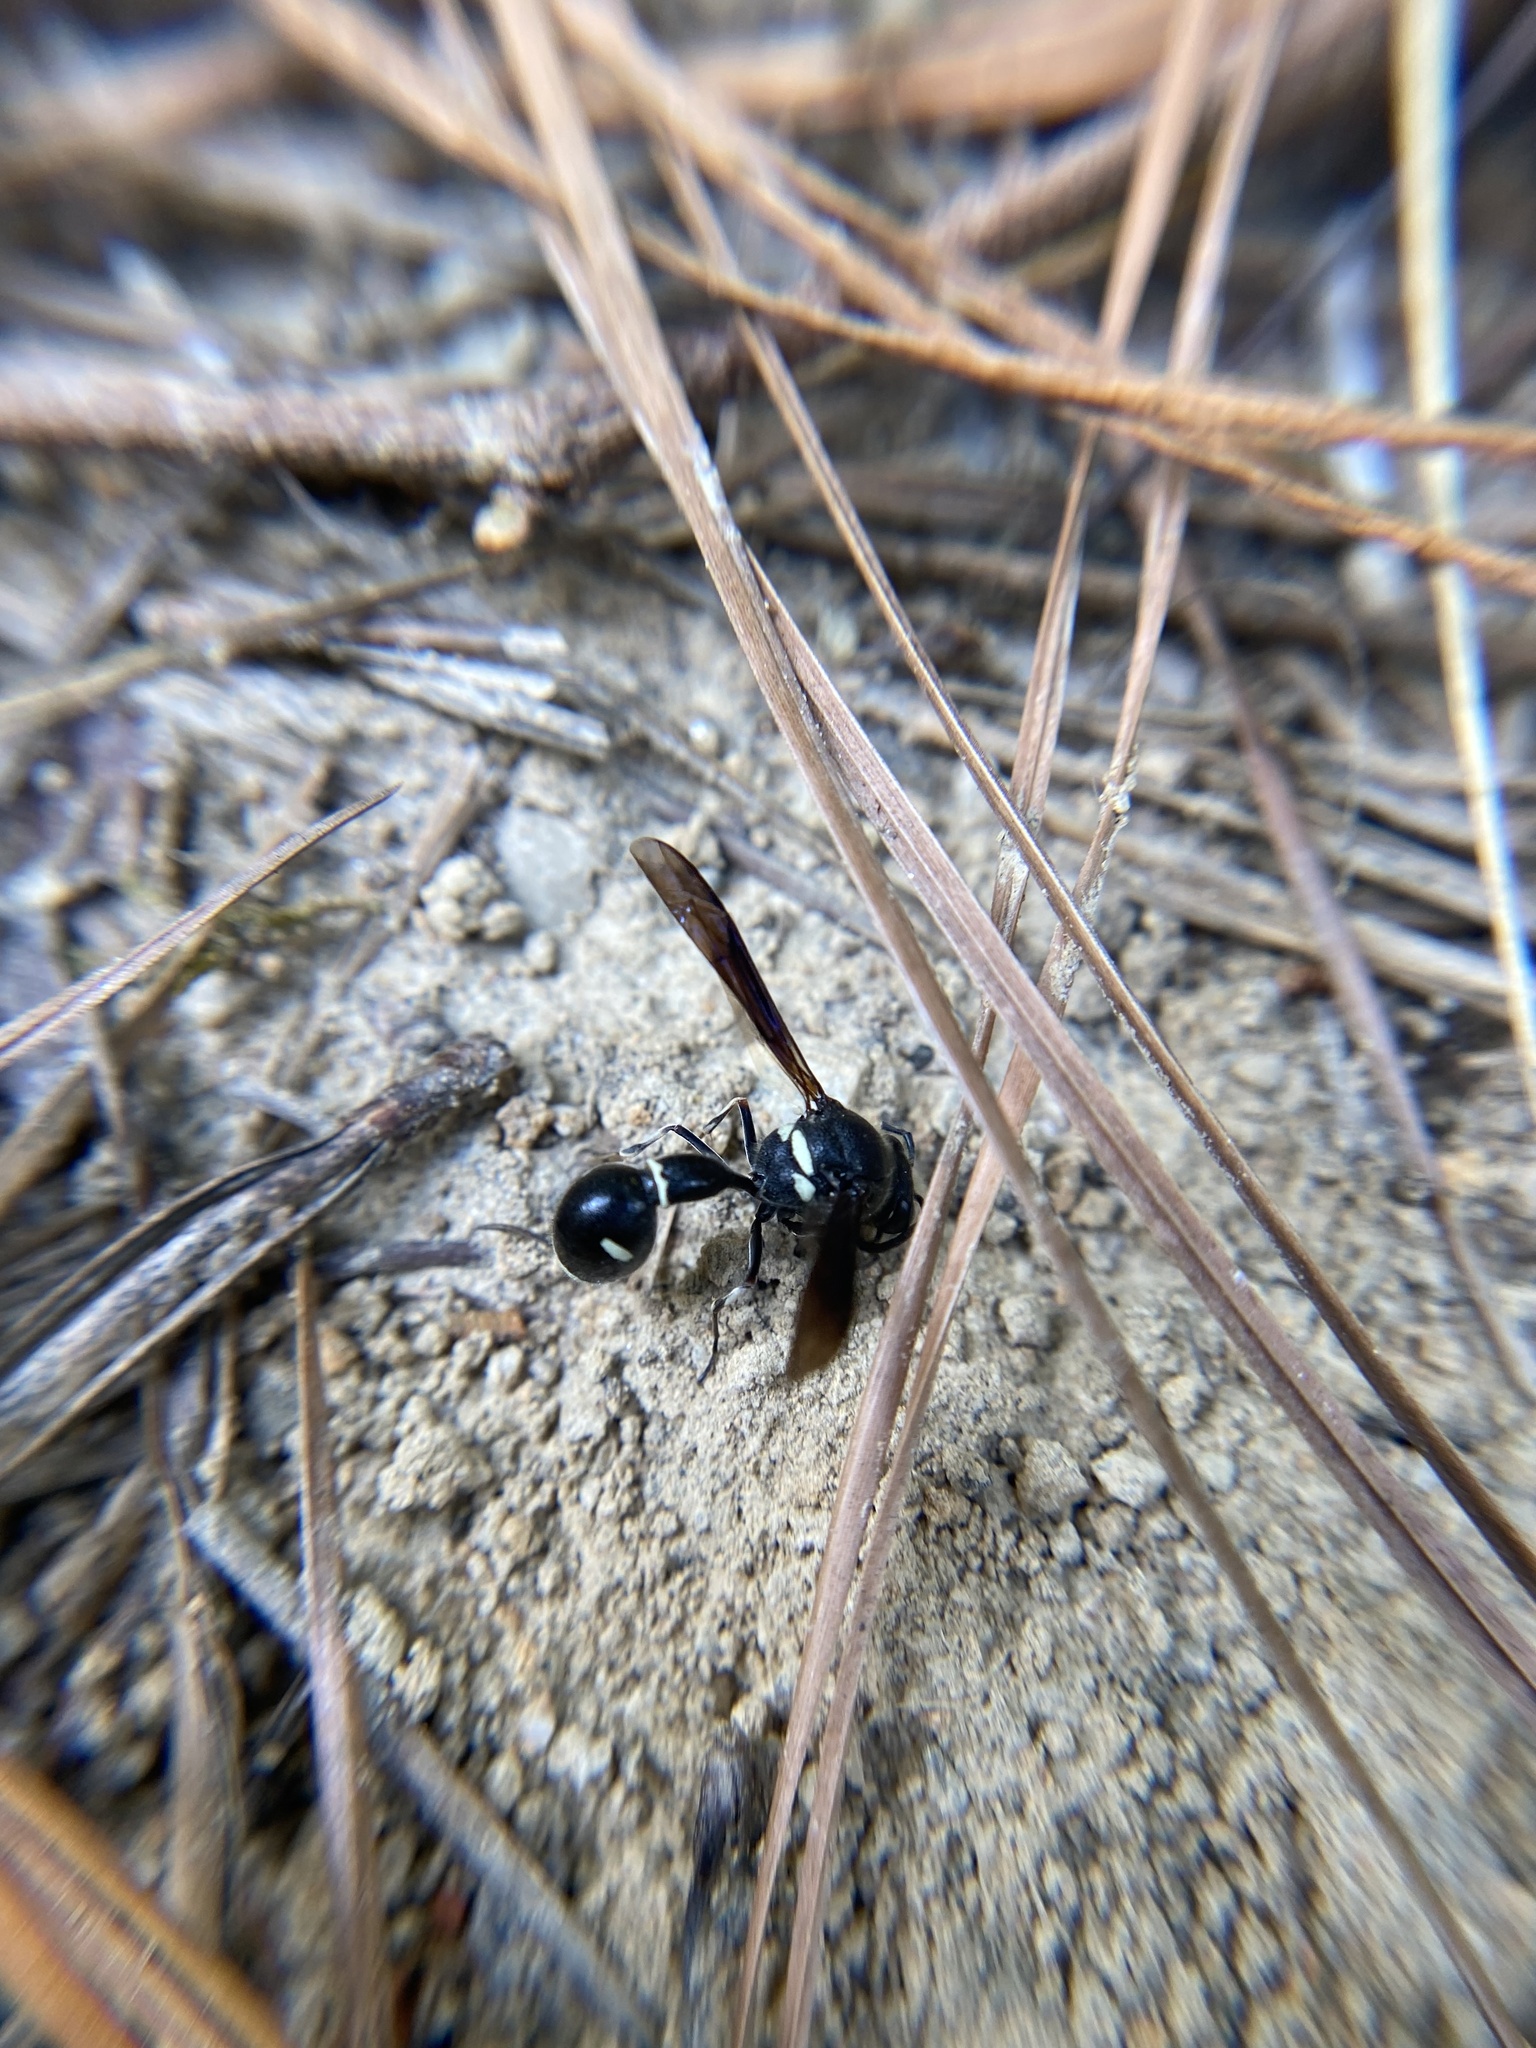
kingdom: Animalia
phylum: Arthropoda
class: Insecta
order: Hymenoptera
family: Vespidae
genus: Eumenes
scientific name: Eumenes fraternus
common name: Fraternal potter wasp
